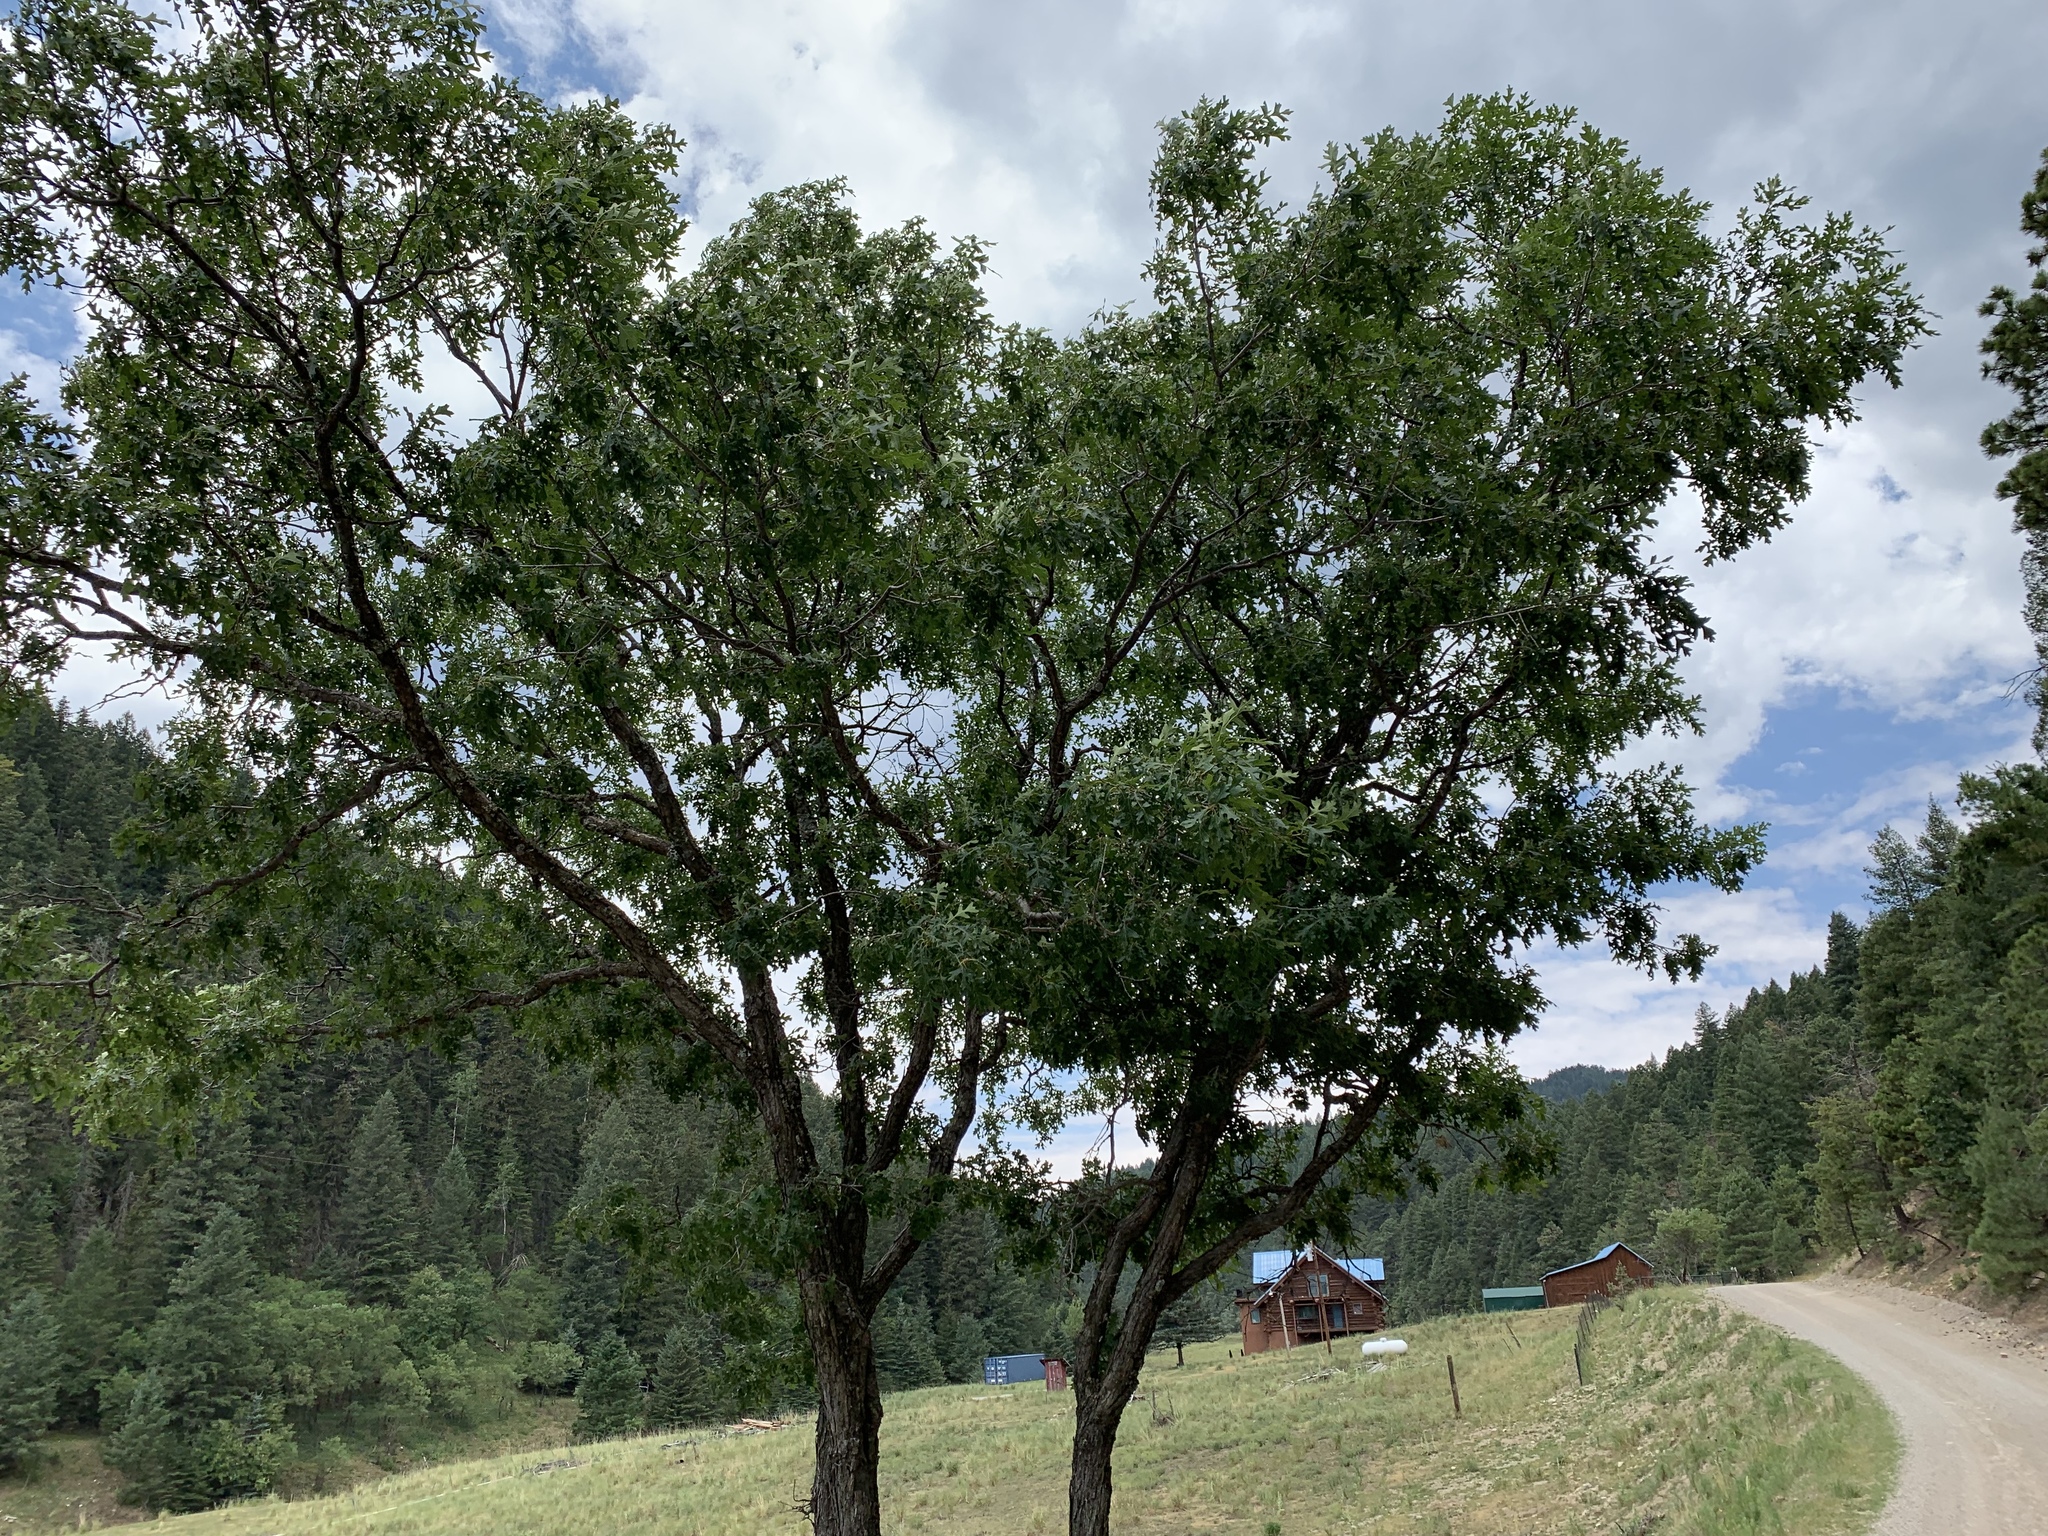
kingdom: Plantae
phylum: Tracheophyta
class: Magnoliopsida
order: Fagales
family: Fagaceae
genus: Quercus
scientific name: Quercus gambelii
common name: Gambel oak
